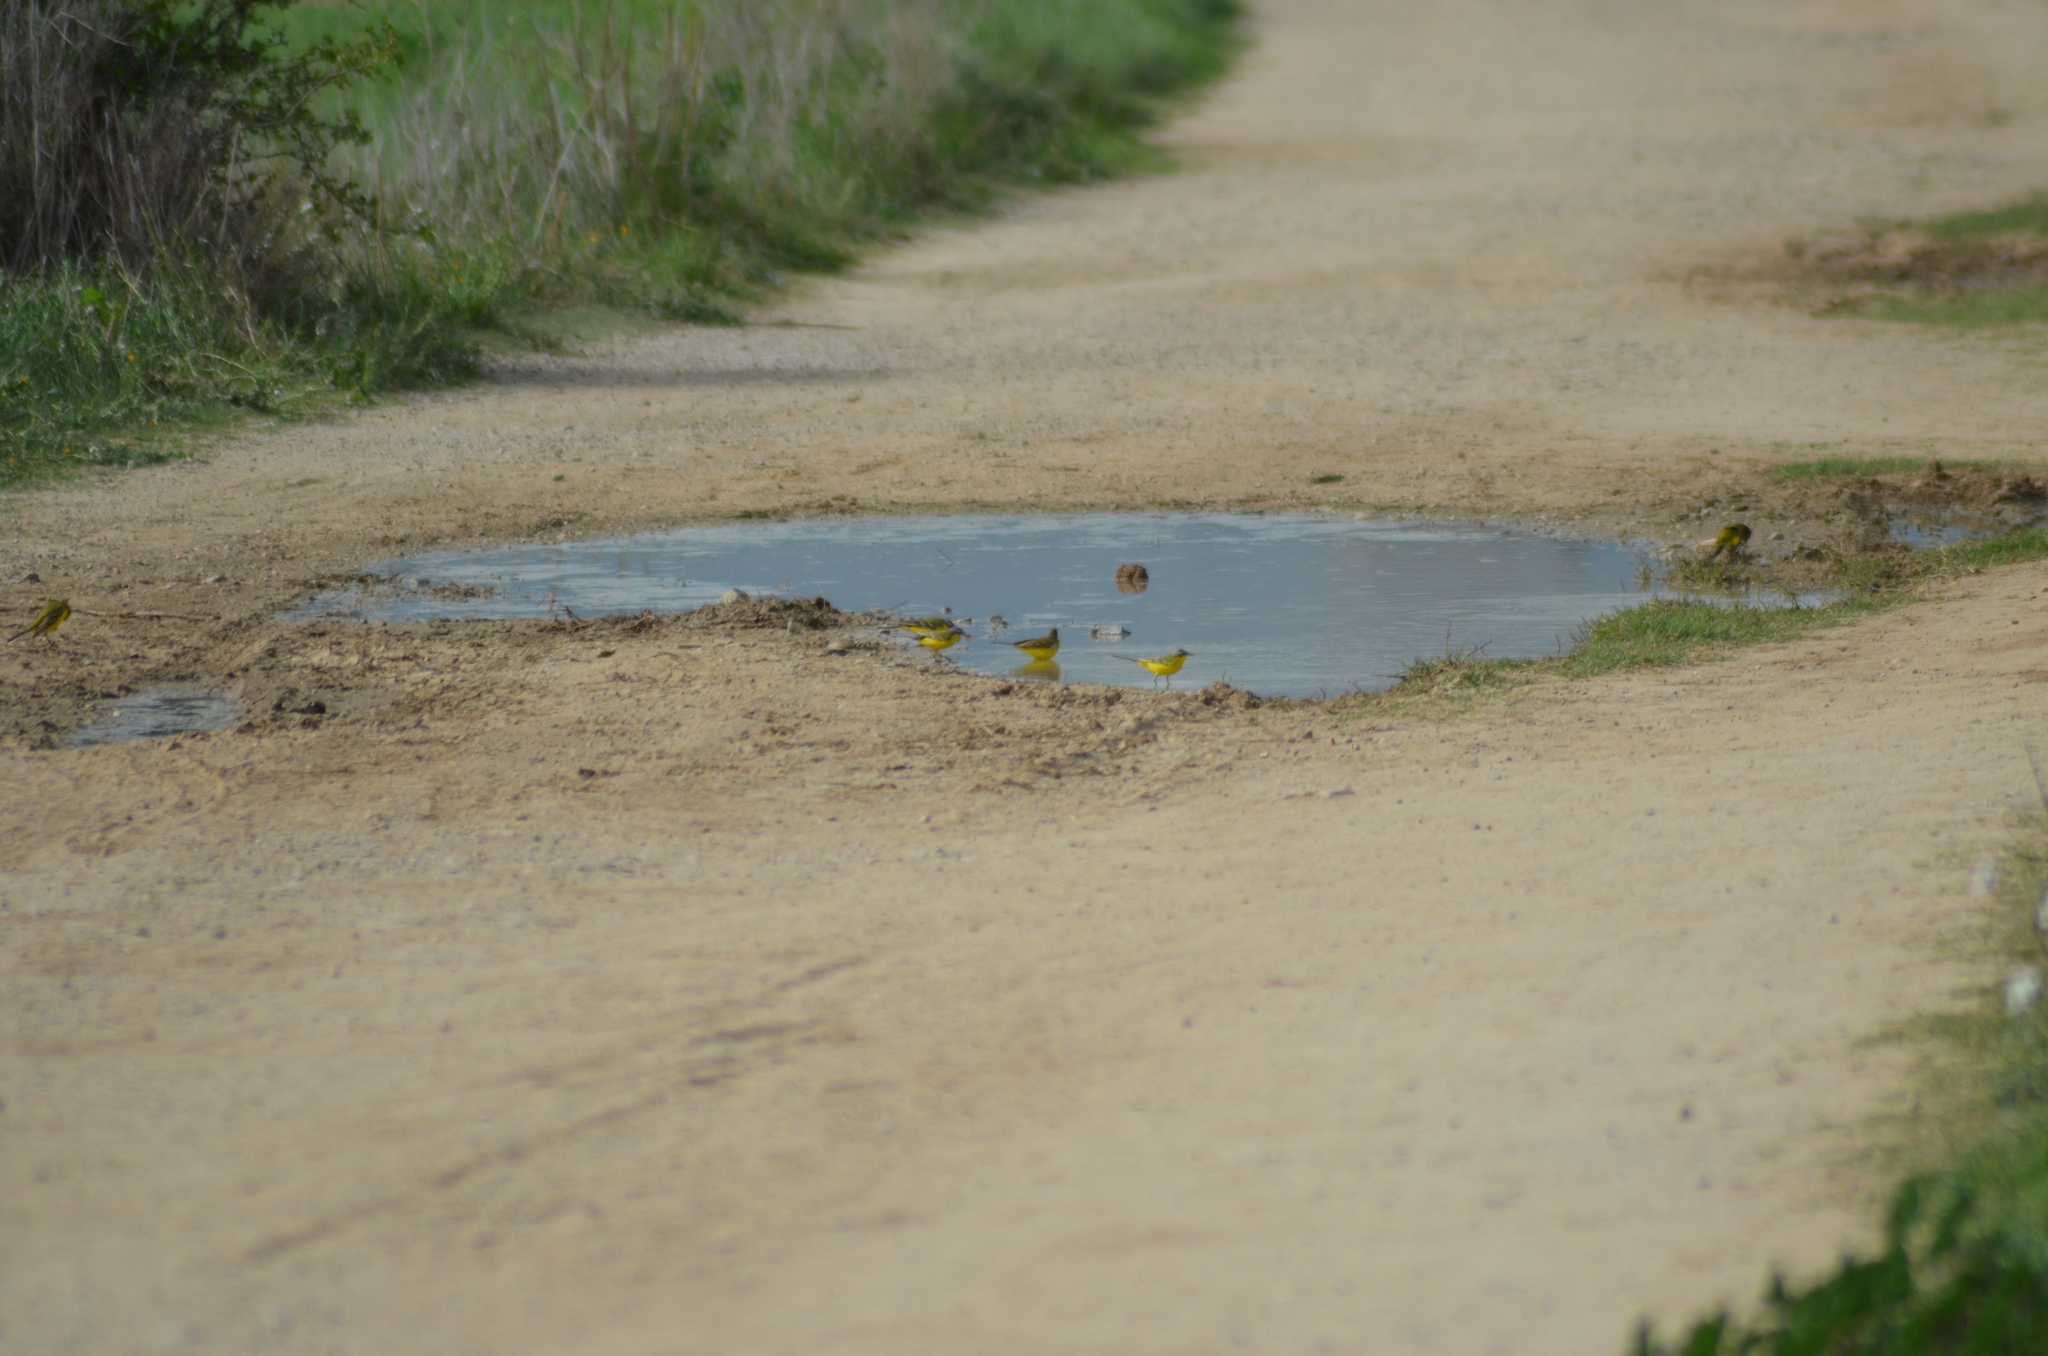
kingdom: Animalia
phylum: Chordata
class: Aves
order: Passeriformes
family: Motacillidae
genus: Motacilla
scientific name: Motacilla flava
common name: Western yellow wagtail
